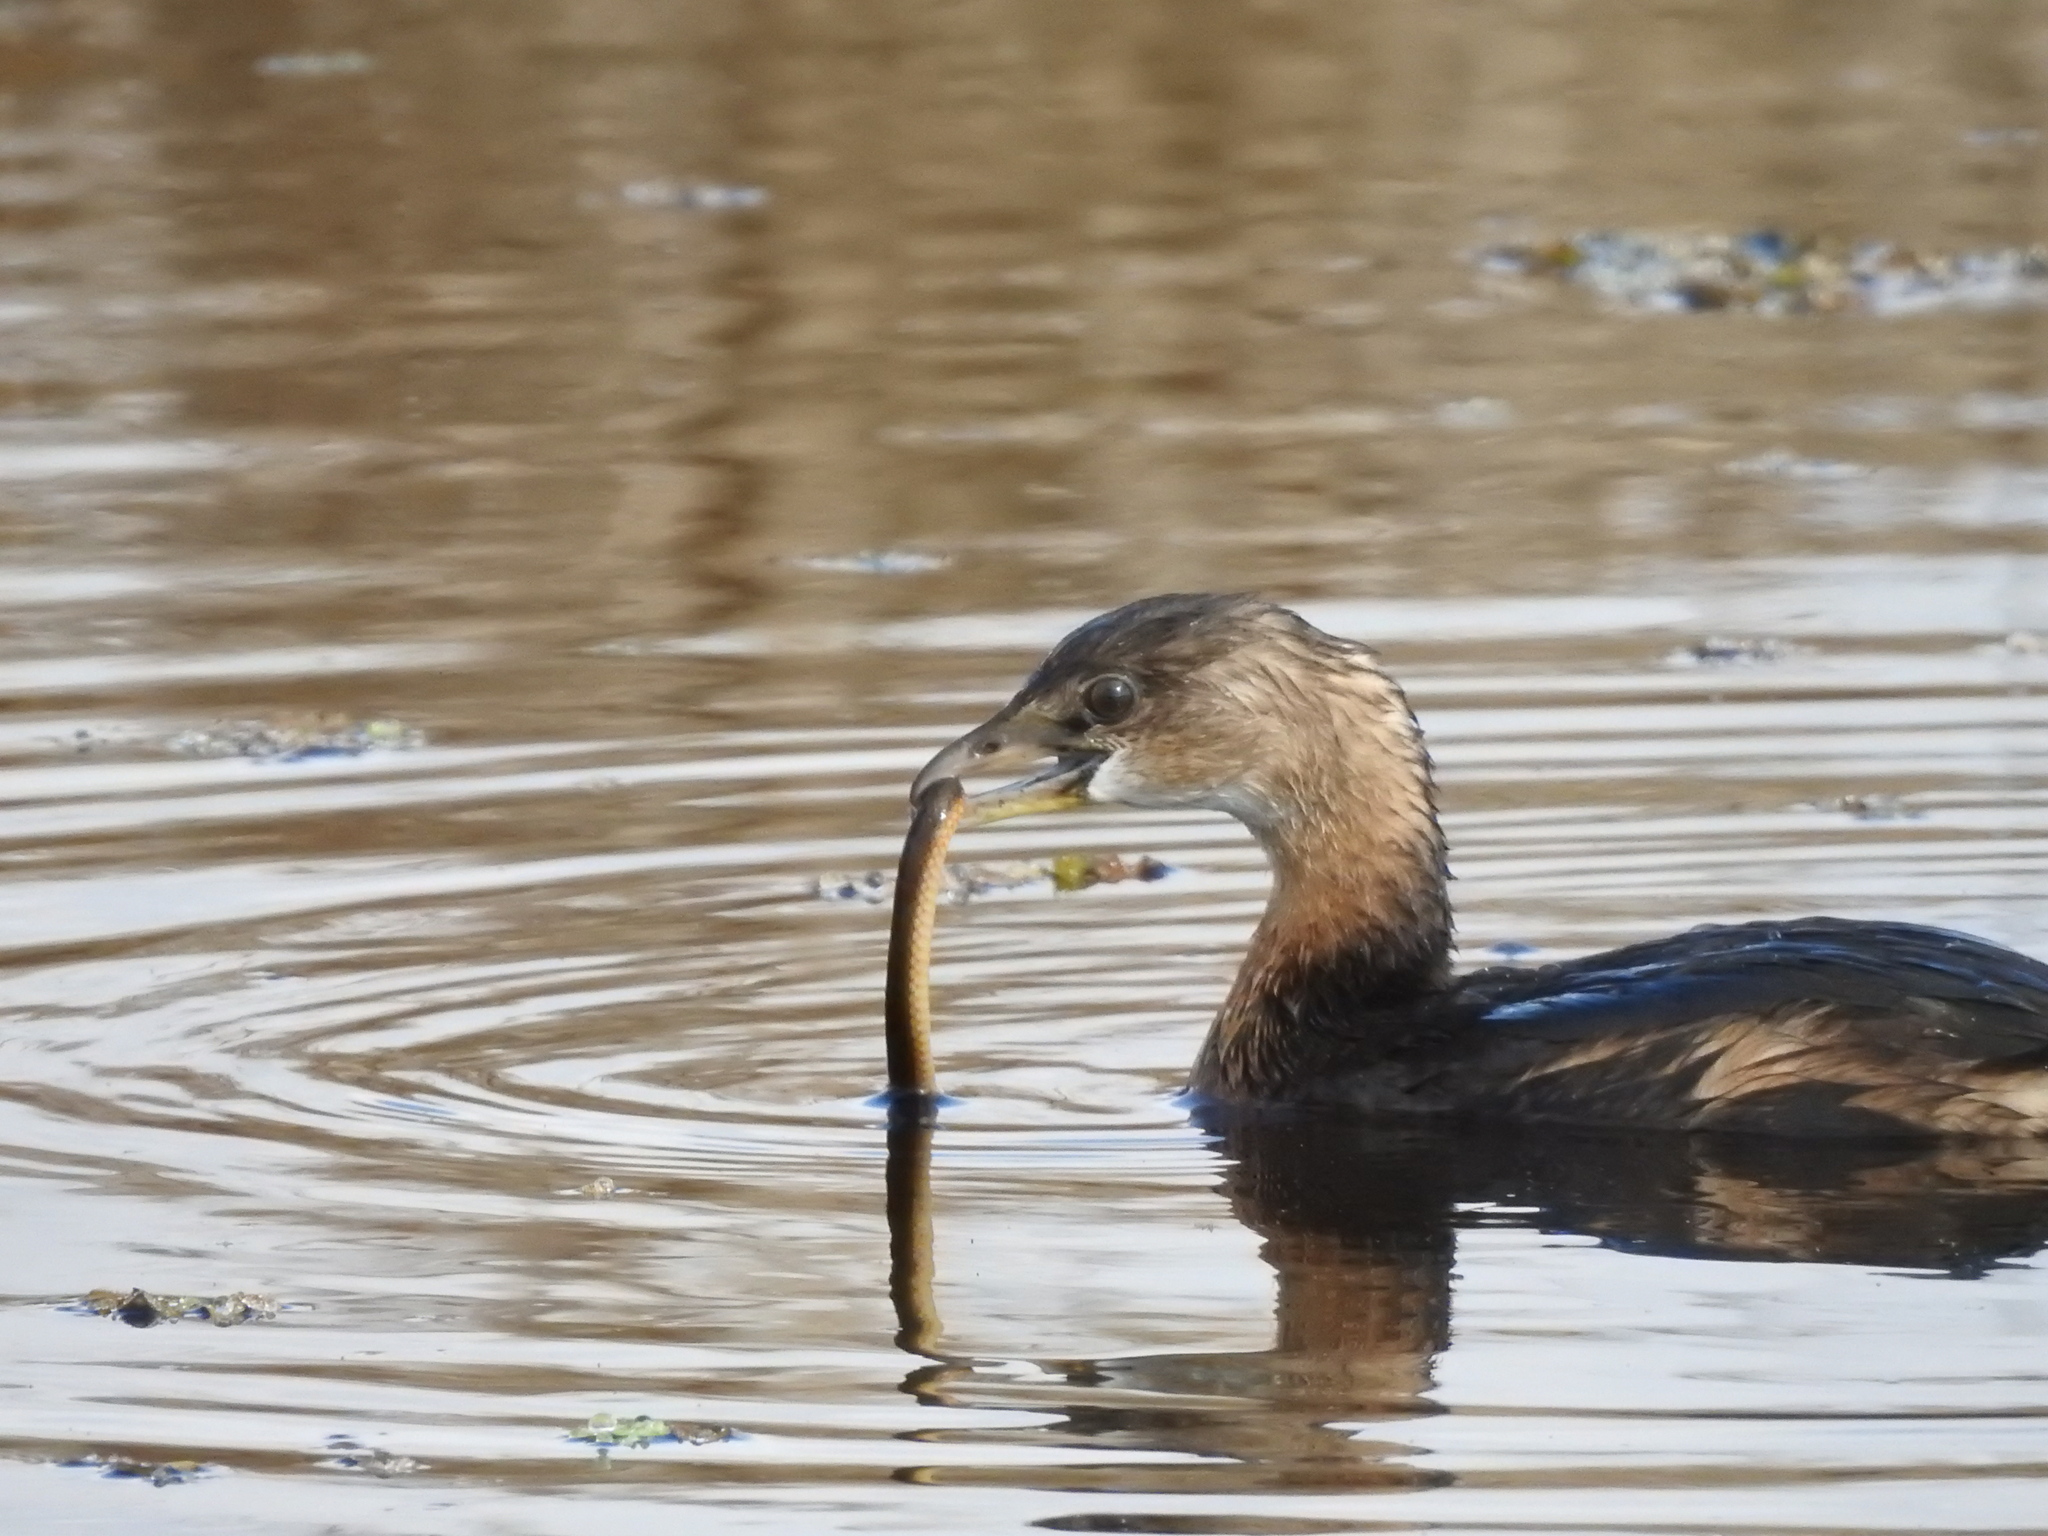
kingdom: Animalia
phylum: Chordata
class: Aves
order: Podicipediformes
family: Podicipedidae
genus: Podilymbus
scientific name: Podilymbus podiceps
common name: Pied-billed grebe
